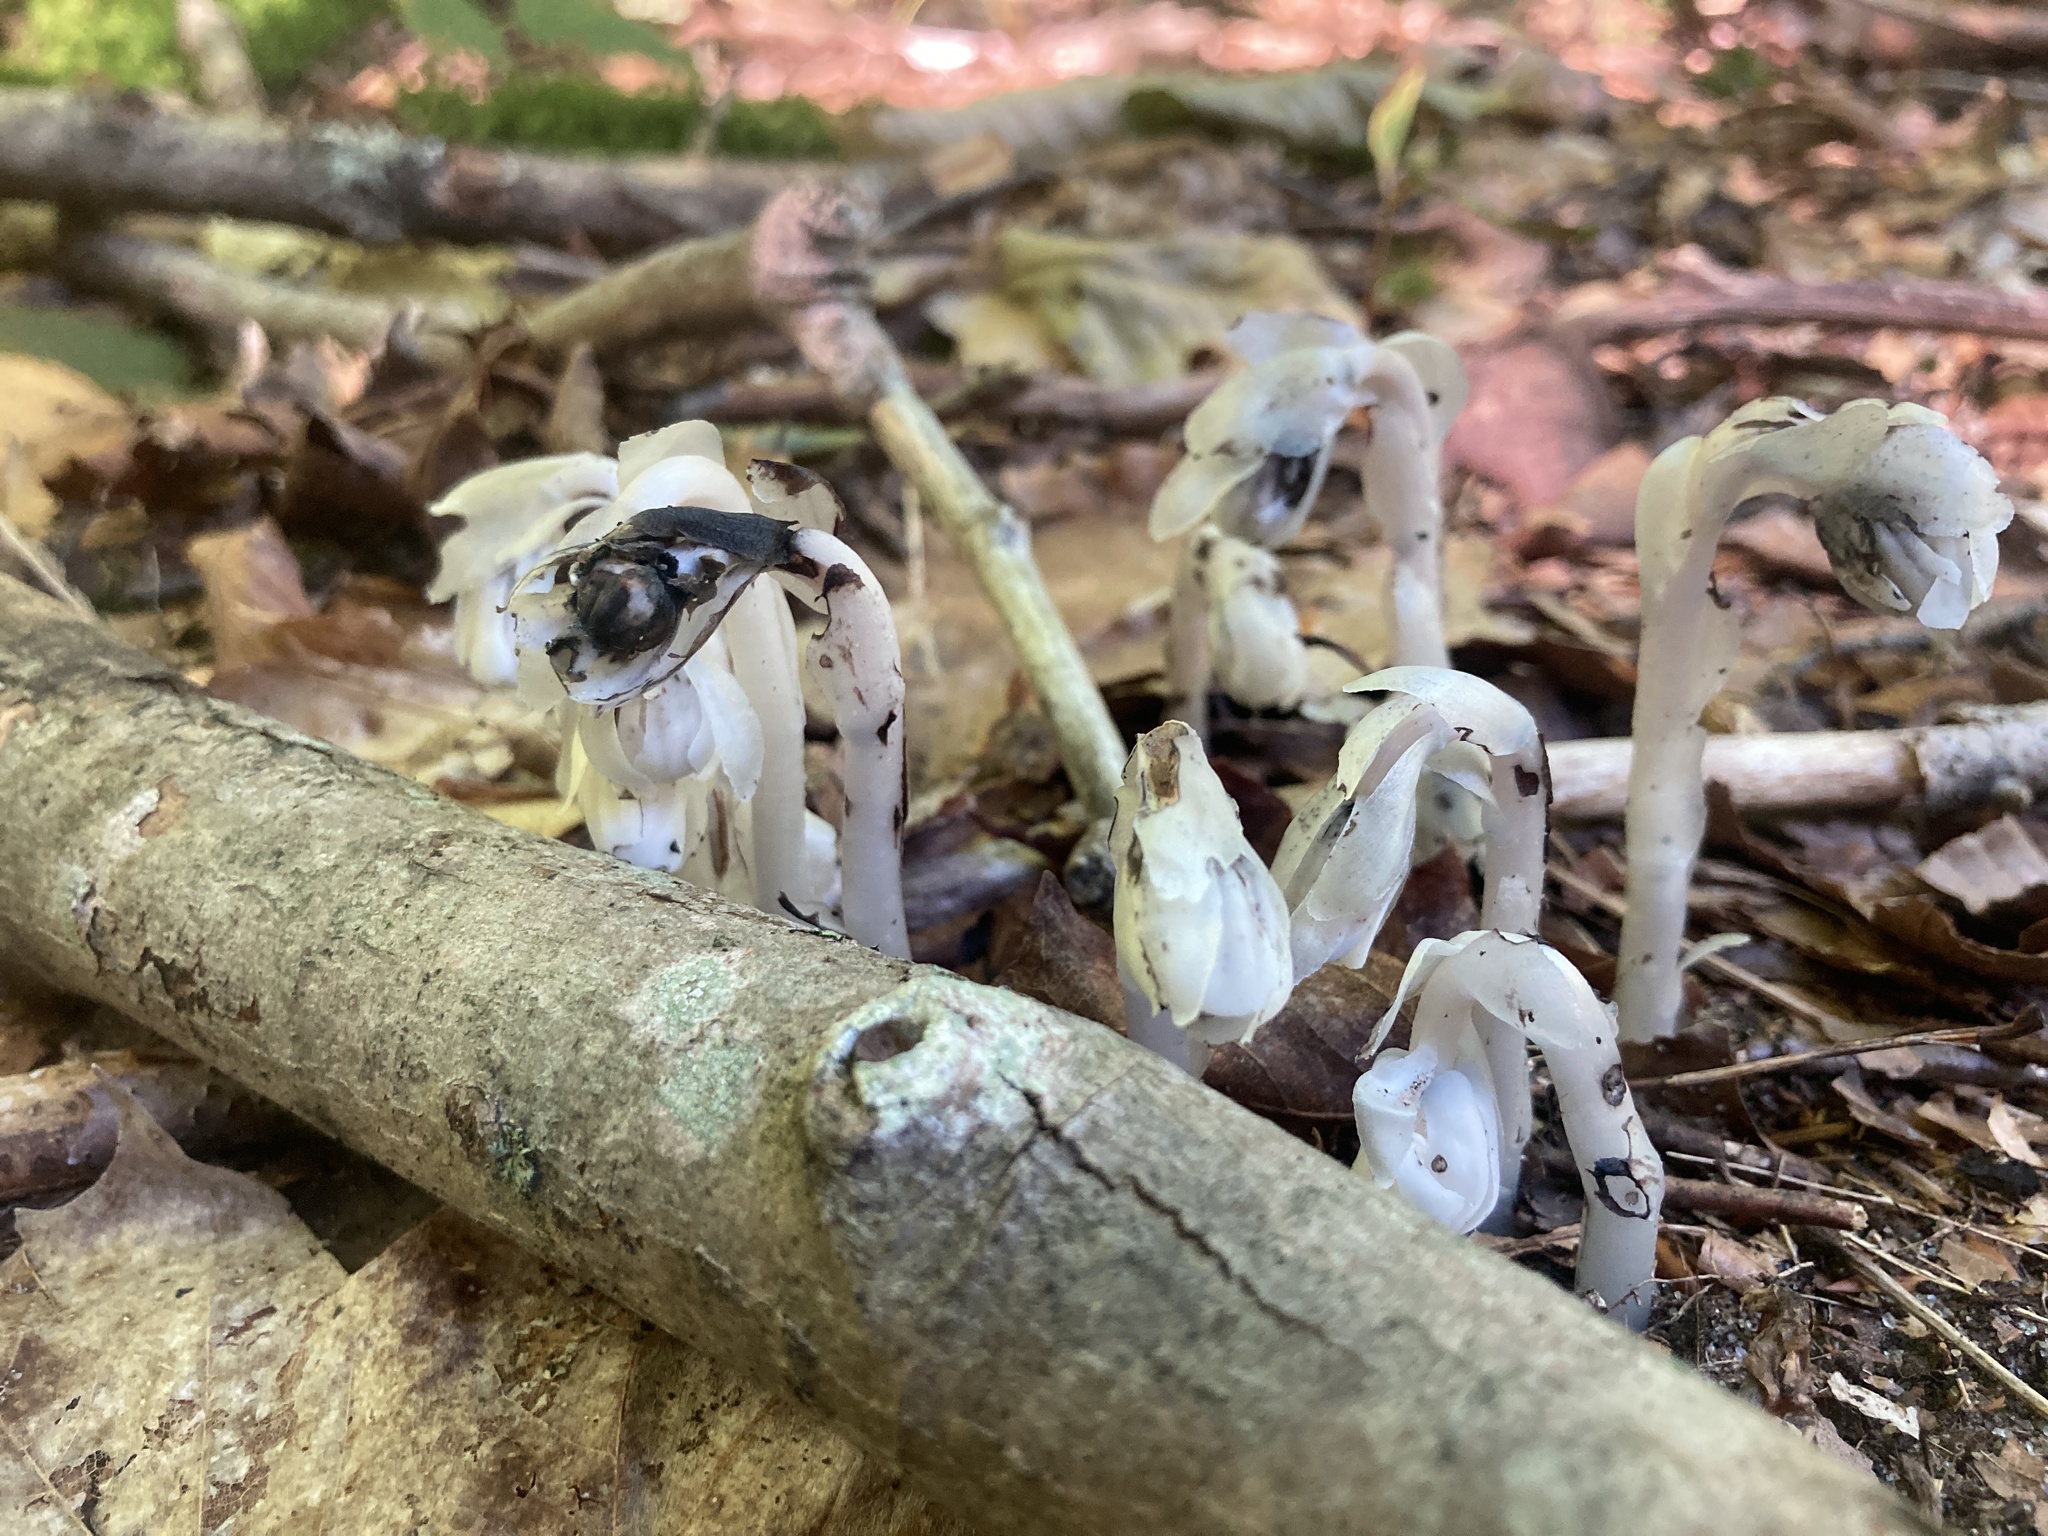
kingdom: Plantae
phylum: Tracheophyta
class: Magnoliopsida
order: Ericales
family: Ericaceae
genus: Monotropa
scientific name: Monotropa uniflora
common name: Convulsion root
